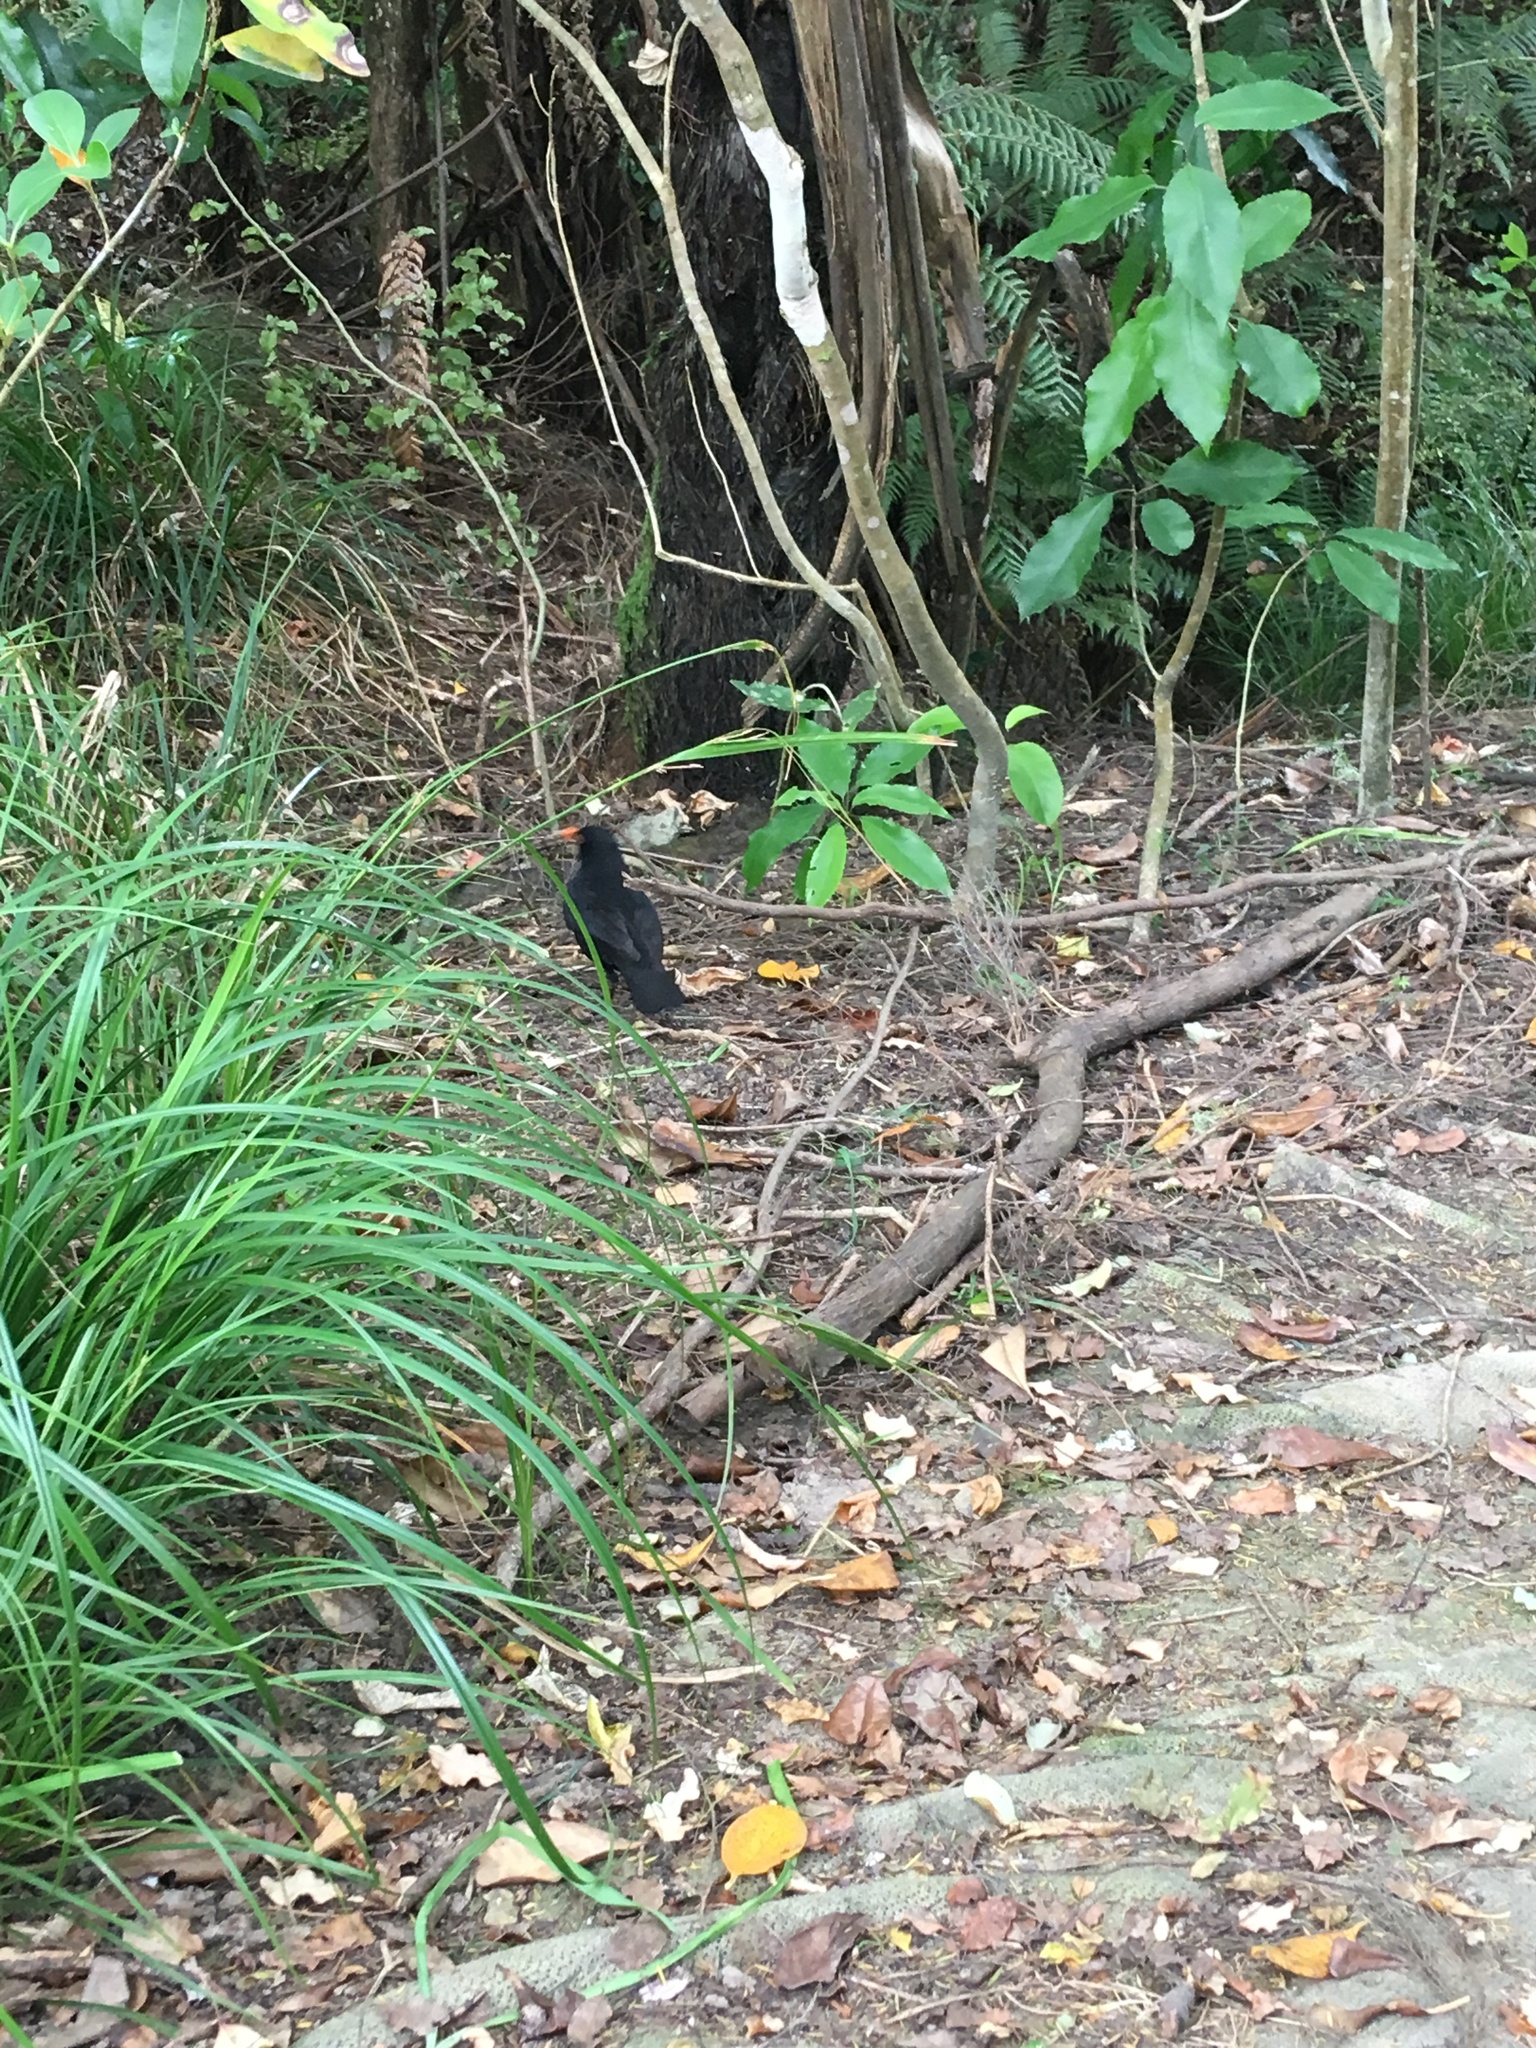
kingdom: Animalia
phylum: Chordata
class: Aves
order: Passeriformes
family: Turdidae
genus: Turdus
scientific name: Turdus merula
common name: Common blackbird
